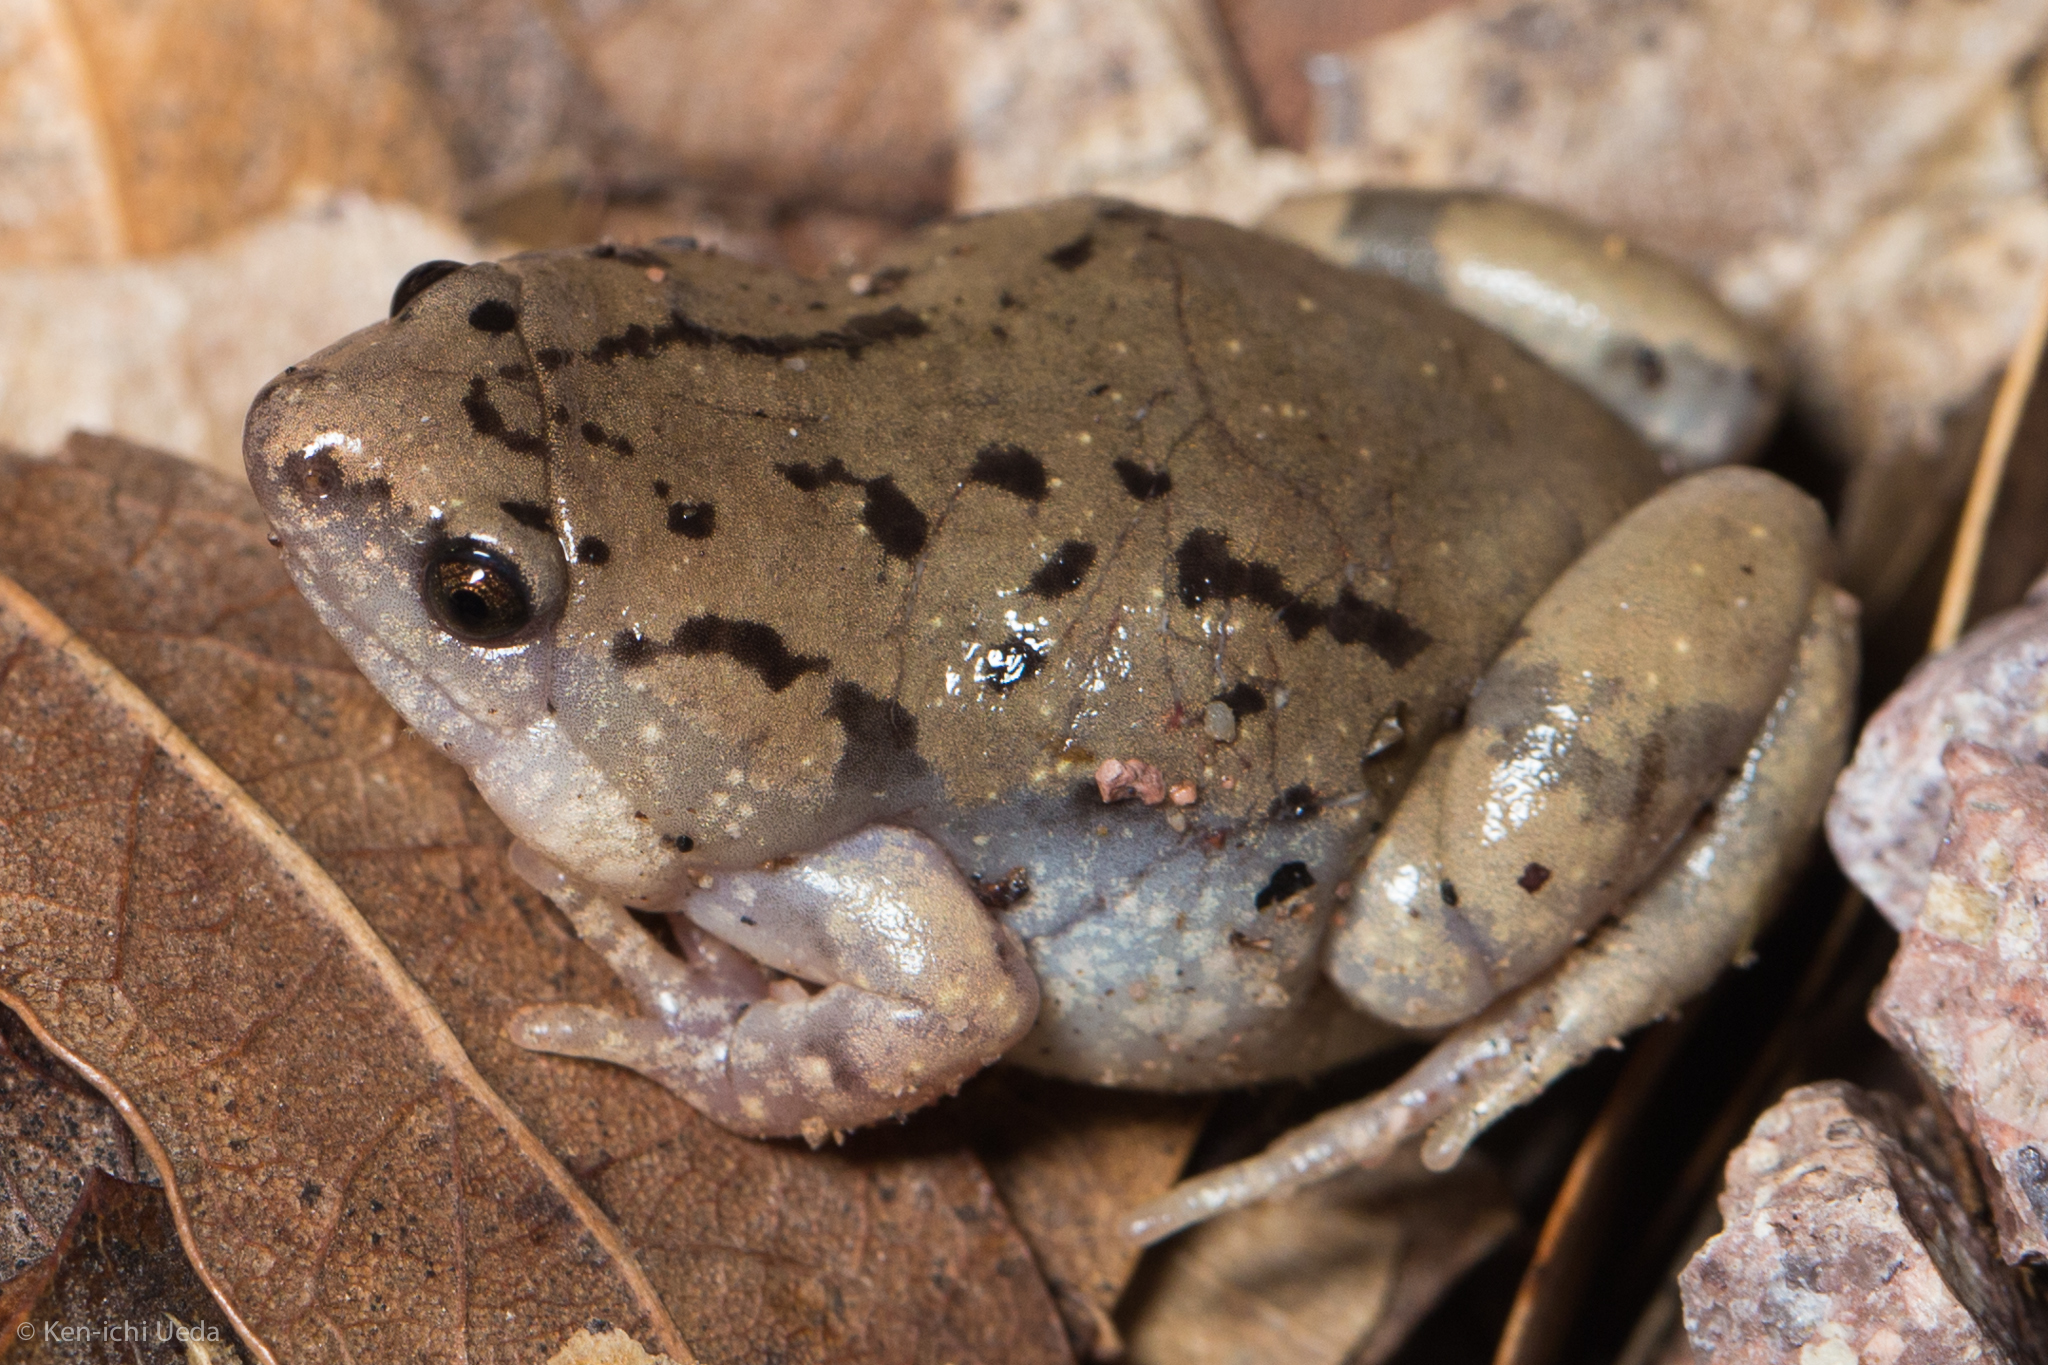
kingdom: Animalia
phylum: Chordata
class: Amphibia
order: Anura
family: Microhylidae
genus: Gastrophryne
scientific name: Gastrophryne mazatlanensis
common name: Sinaloan narrow-mouthed toad
